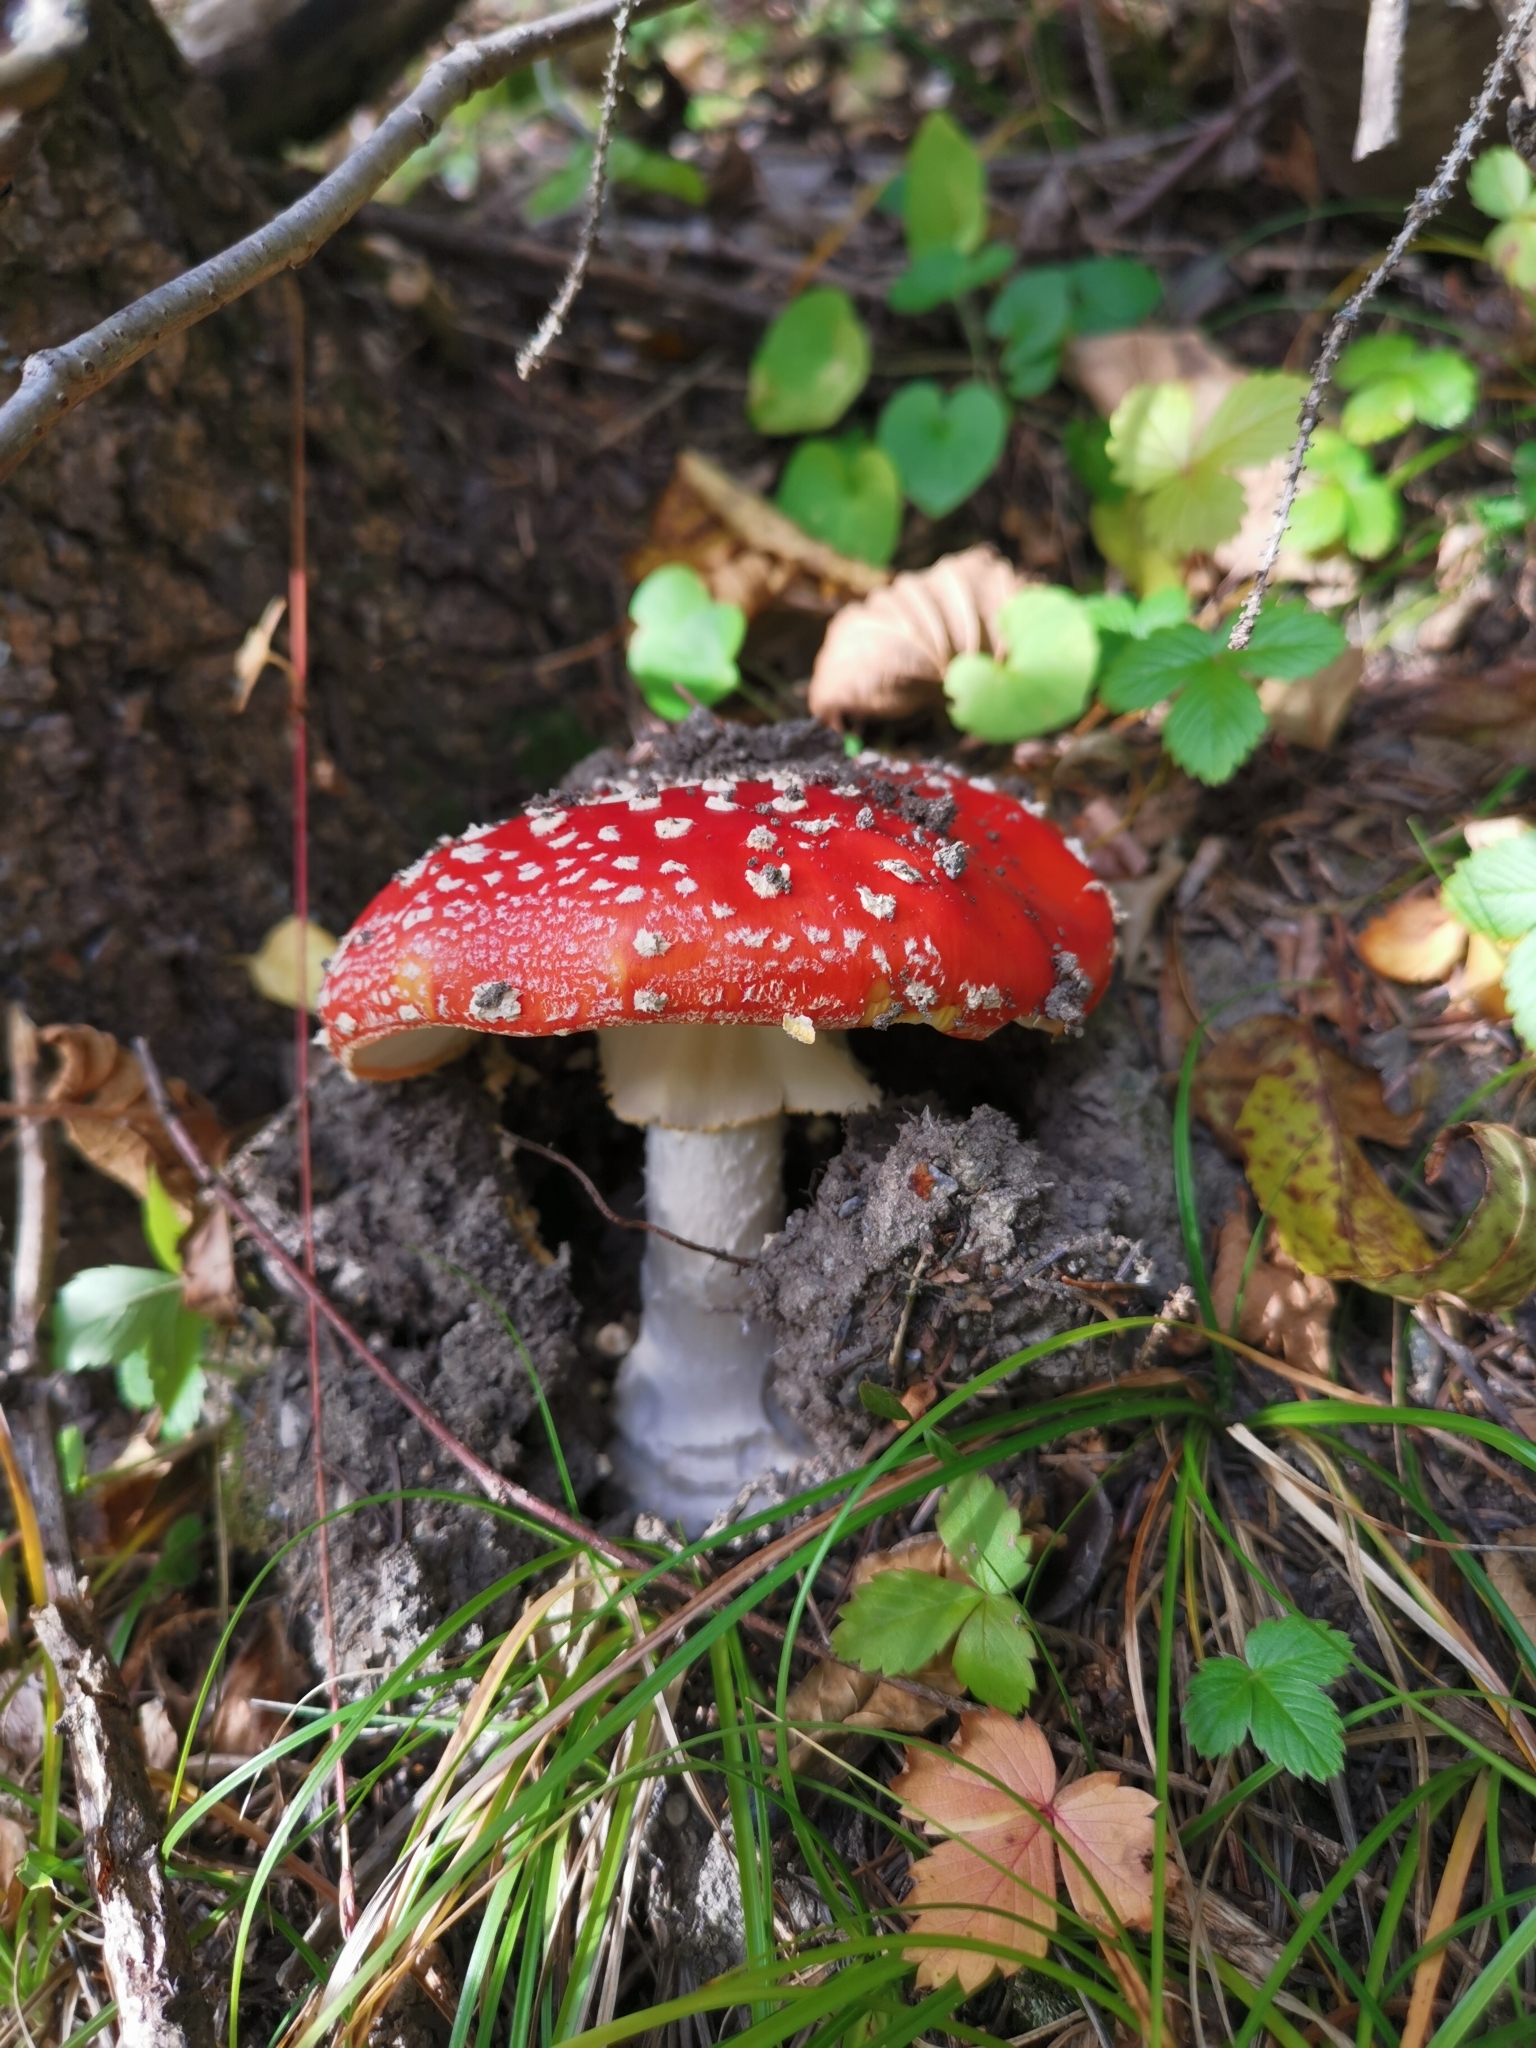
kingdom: Fungi
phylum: Basidiomycota
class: Agaricomycetes
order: Agaricales
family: Amanitaceae
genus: Amanita
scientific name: Amanita muscaria
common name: Fly agaric
